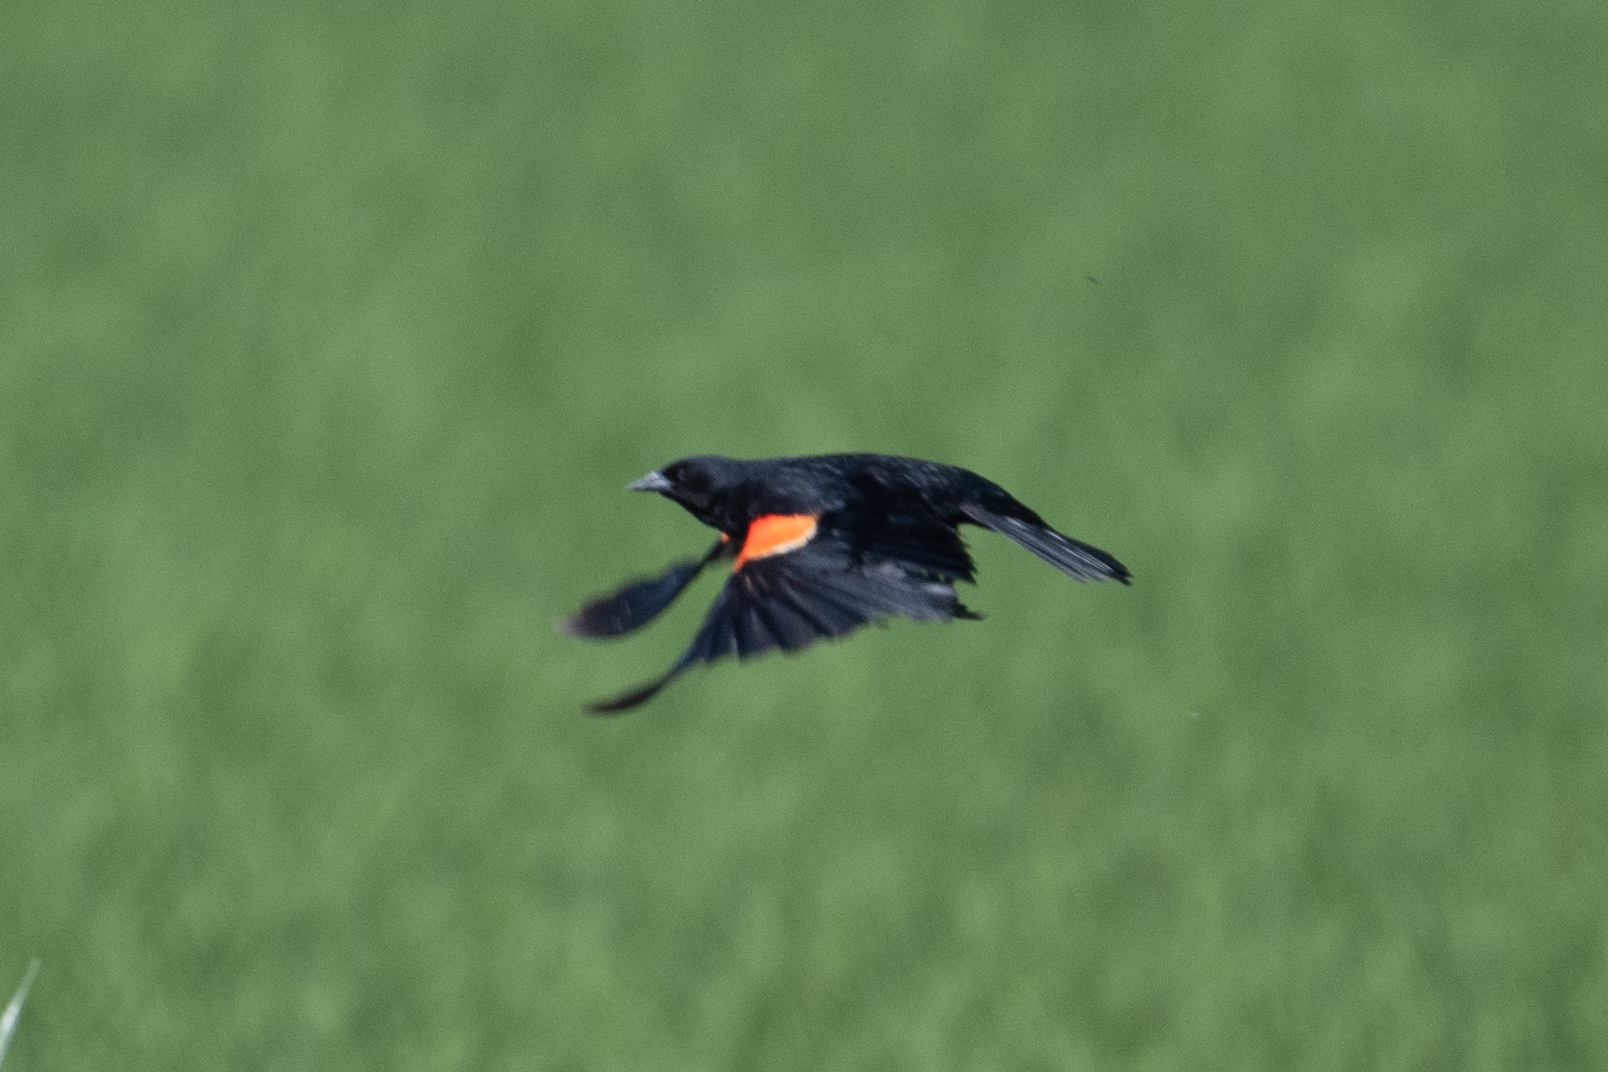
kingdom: Animalia
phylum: Chordata
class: Aves
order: Passeriformes
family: Icteridae
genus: Agelaius
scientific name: Agelaius phoeniceus
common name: Red-winged blackbird
